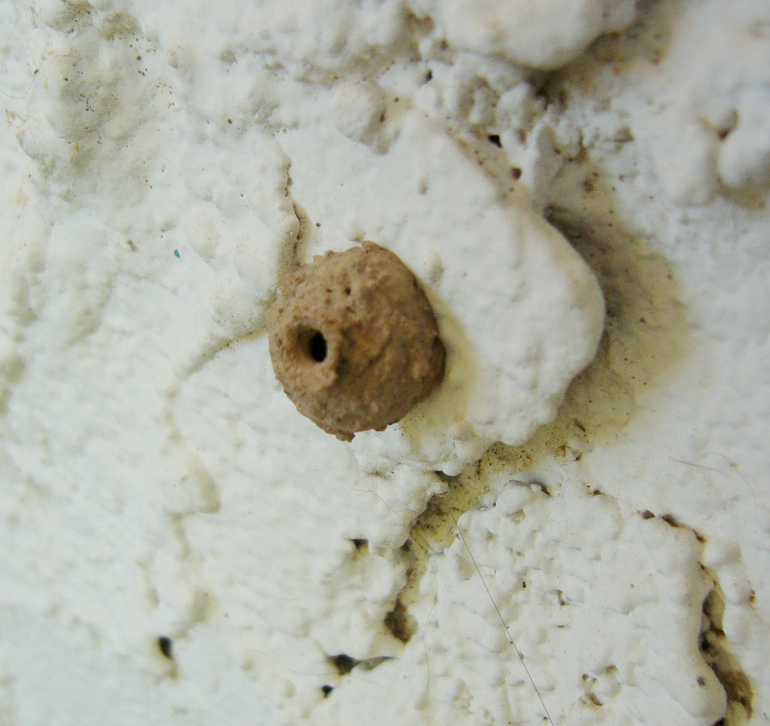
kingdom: Animalia
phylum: Arthropoda
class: Insecta
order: Hymenoptera
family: Vespidae
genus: Eumenes
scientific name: Eumenes
